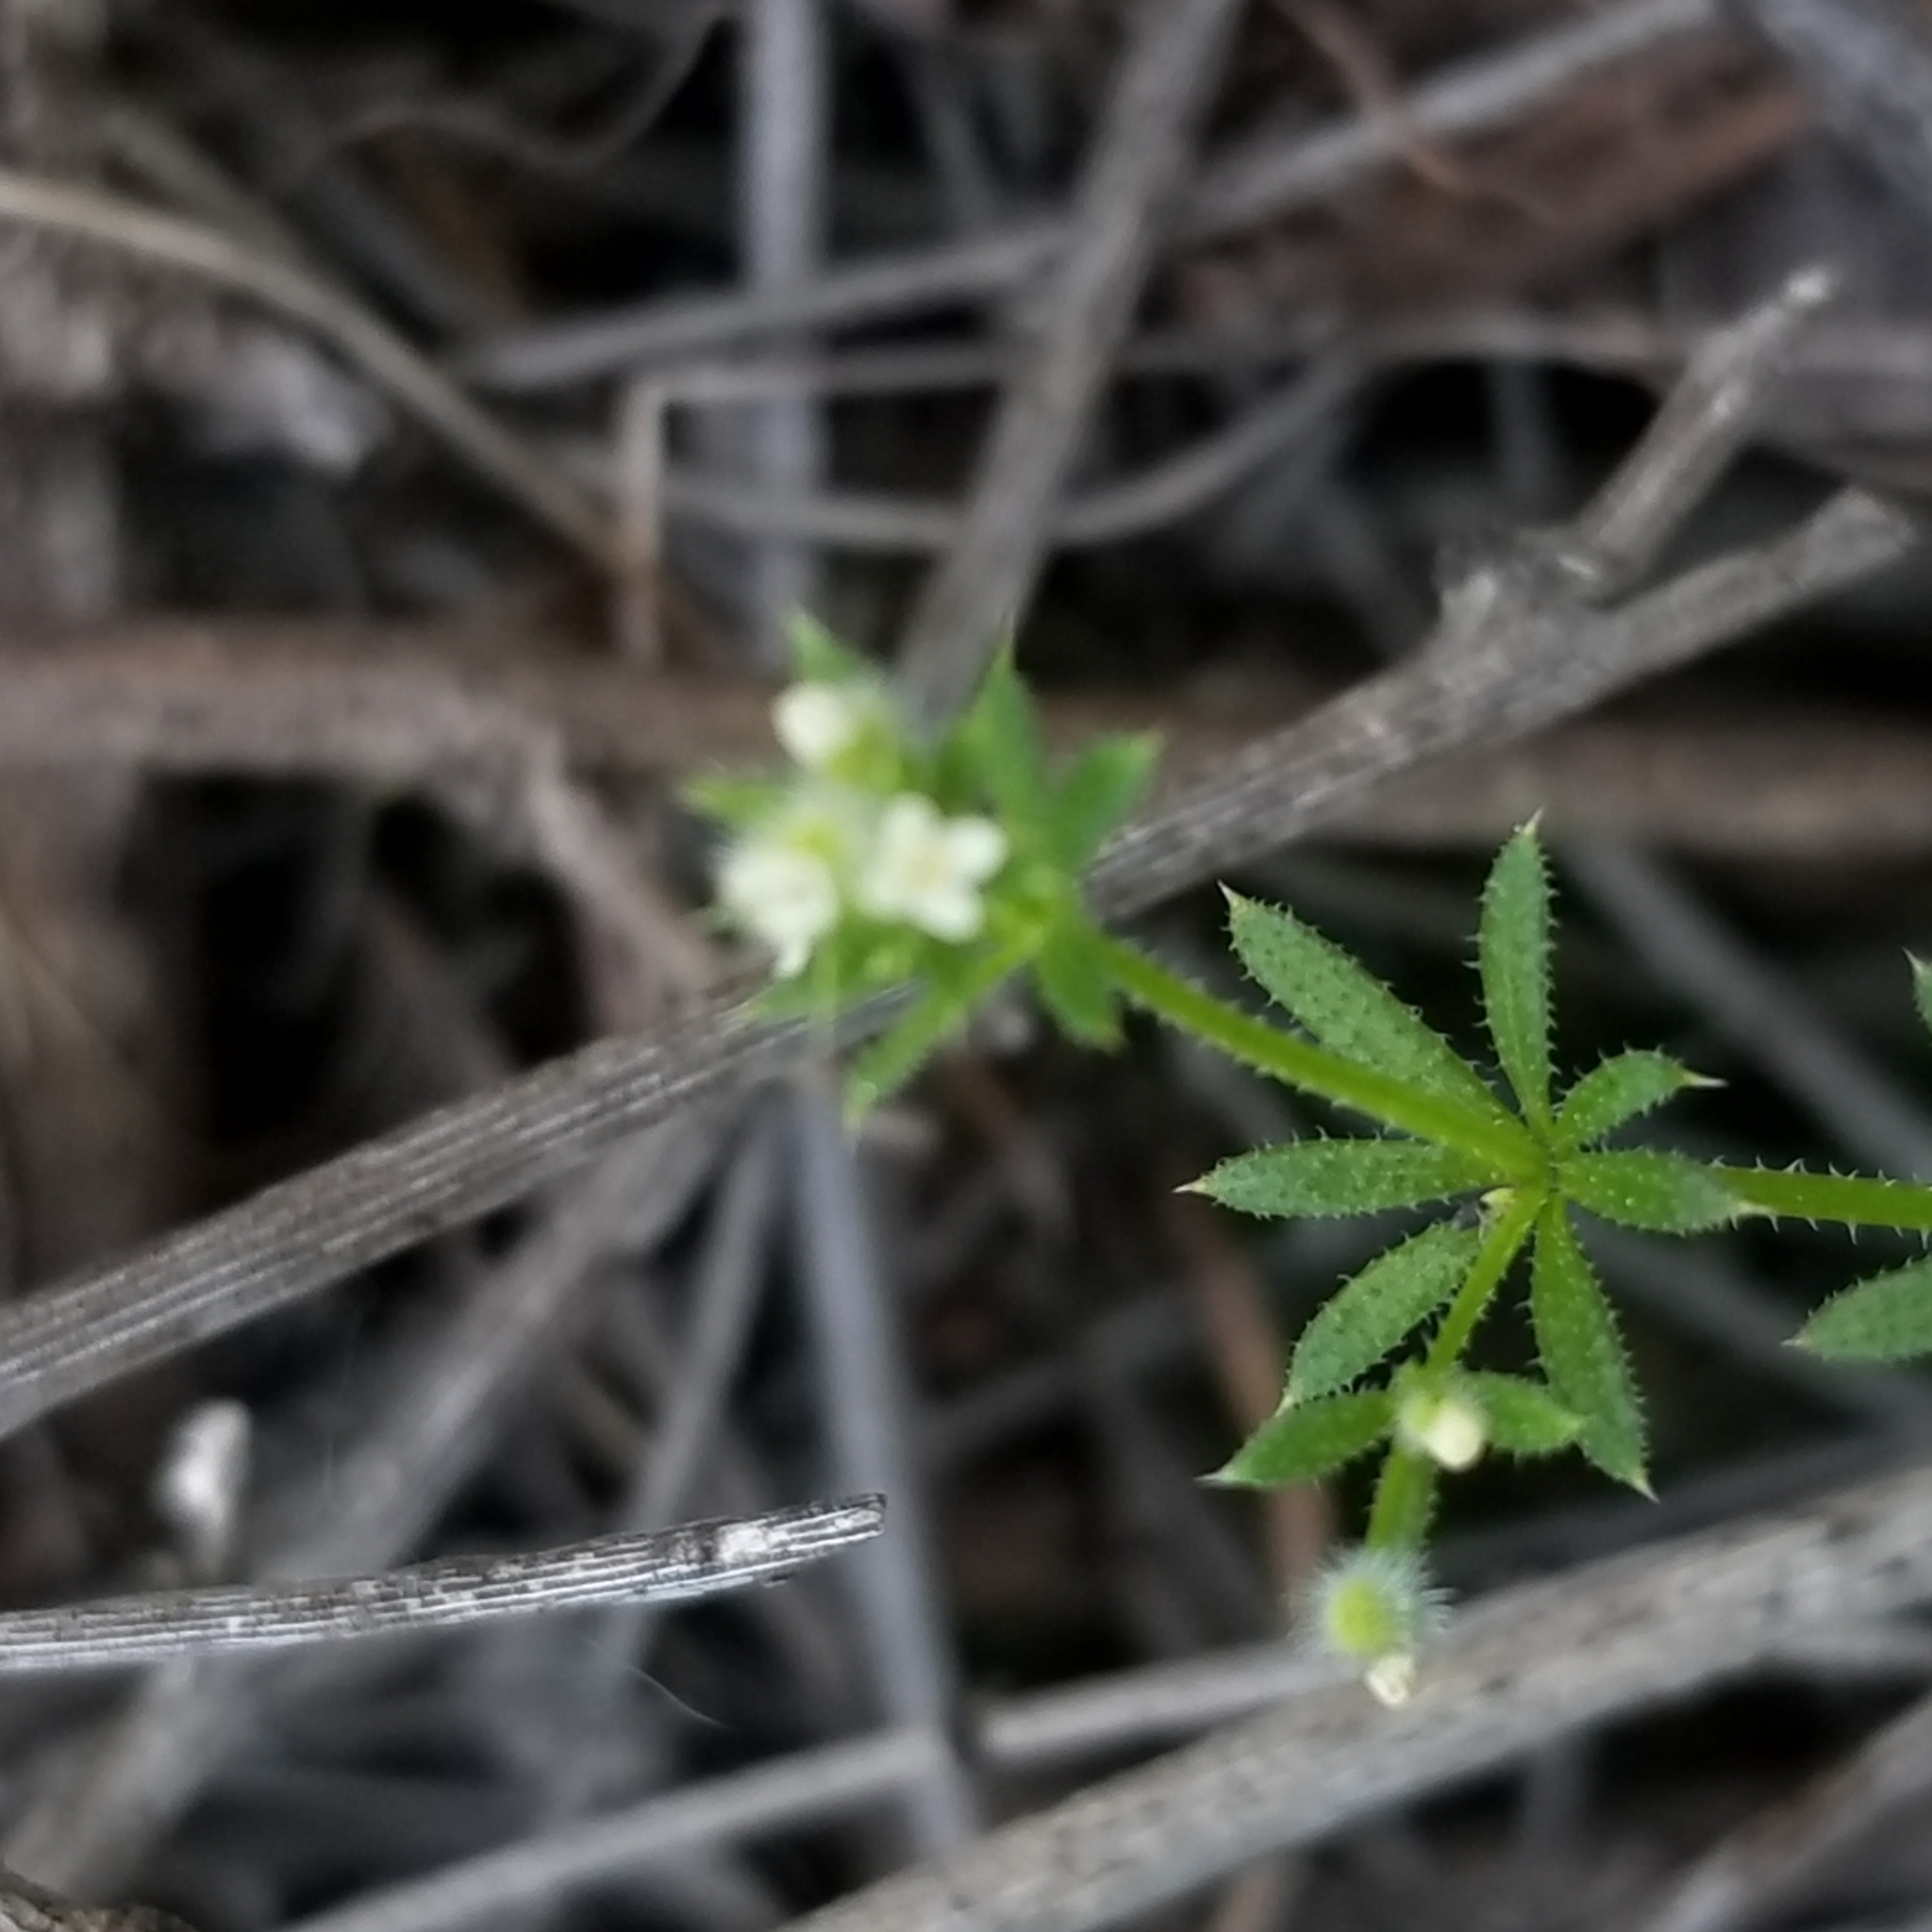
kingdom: Plantae
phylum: Tracheophyta
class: Magnoliopsida
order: Gentianales
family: Rubiaceae
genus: Galium
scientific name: Galium aparine
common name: Cleavers
